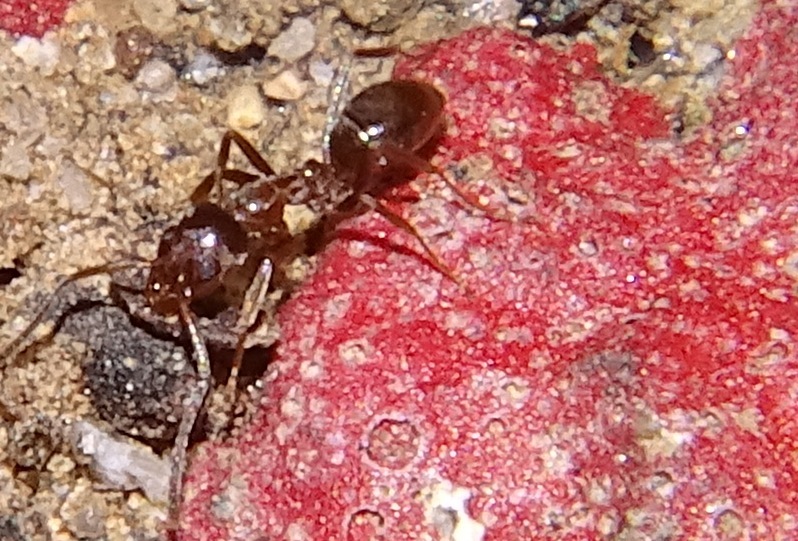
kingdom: Animalia
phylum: Arthropoda
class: Insecta
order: Hymenoptera
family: Formicidae
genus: Linepithema
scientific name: Linepithema humile
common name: Argentine ant
